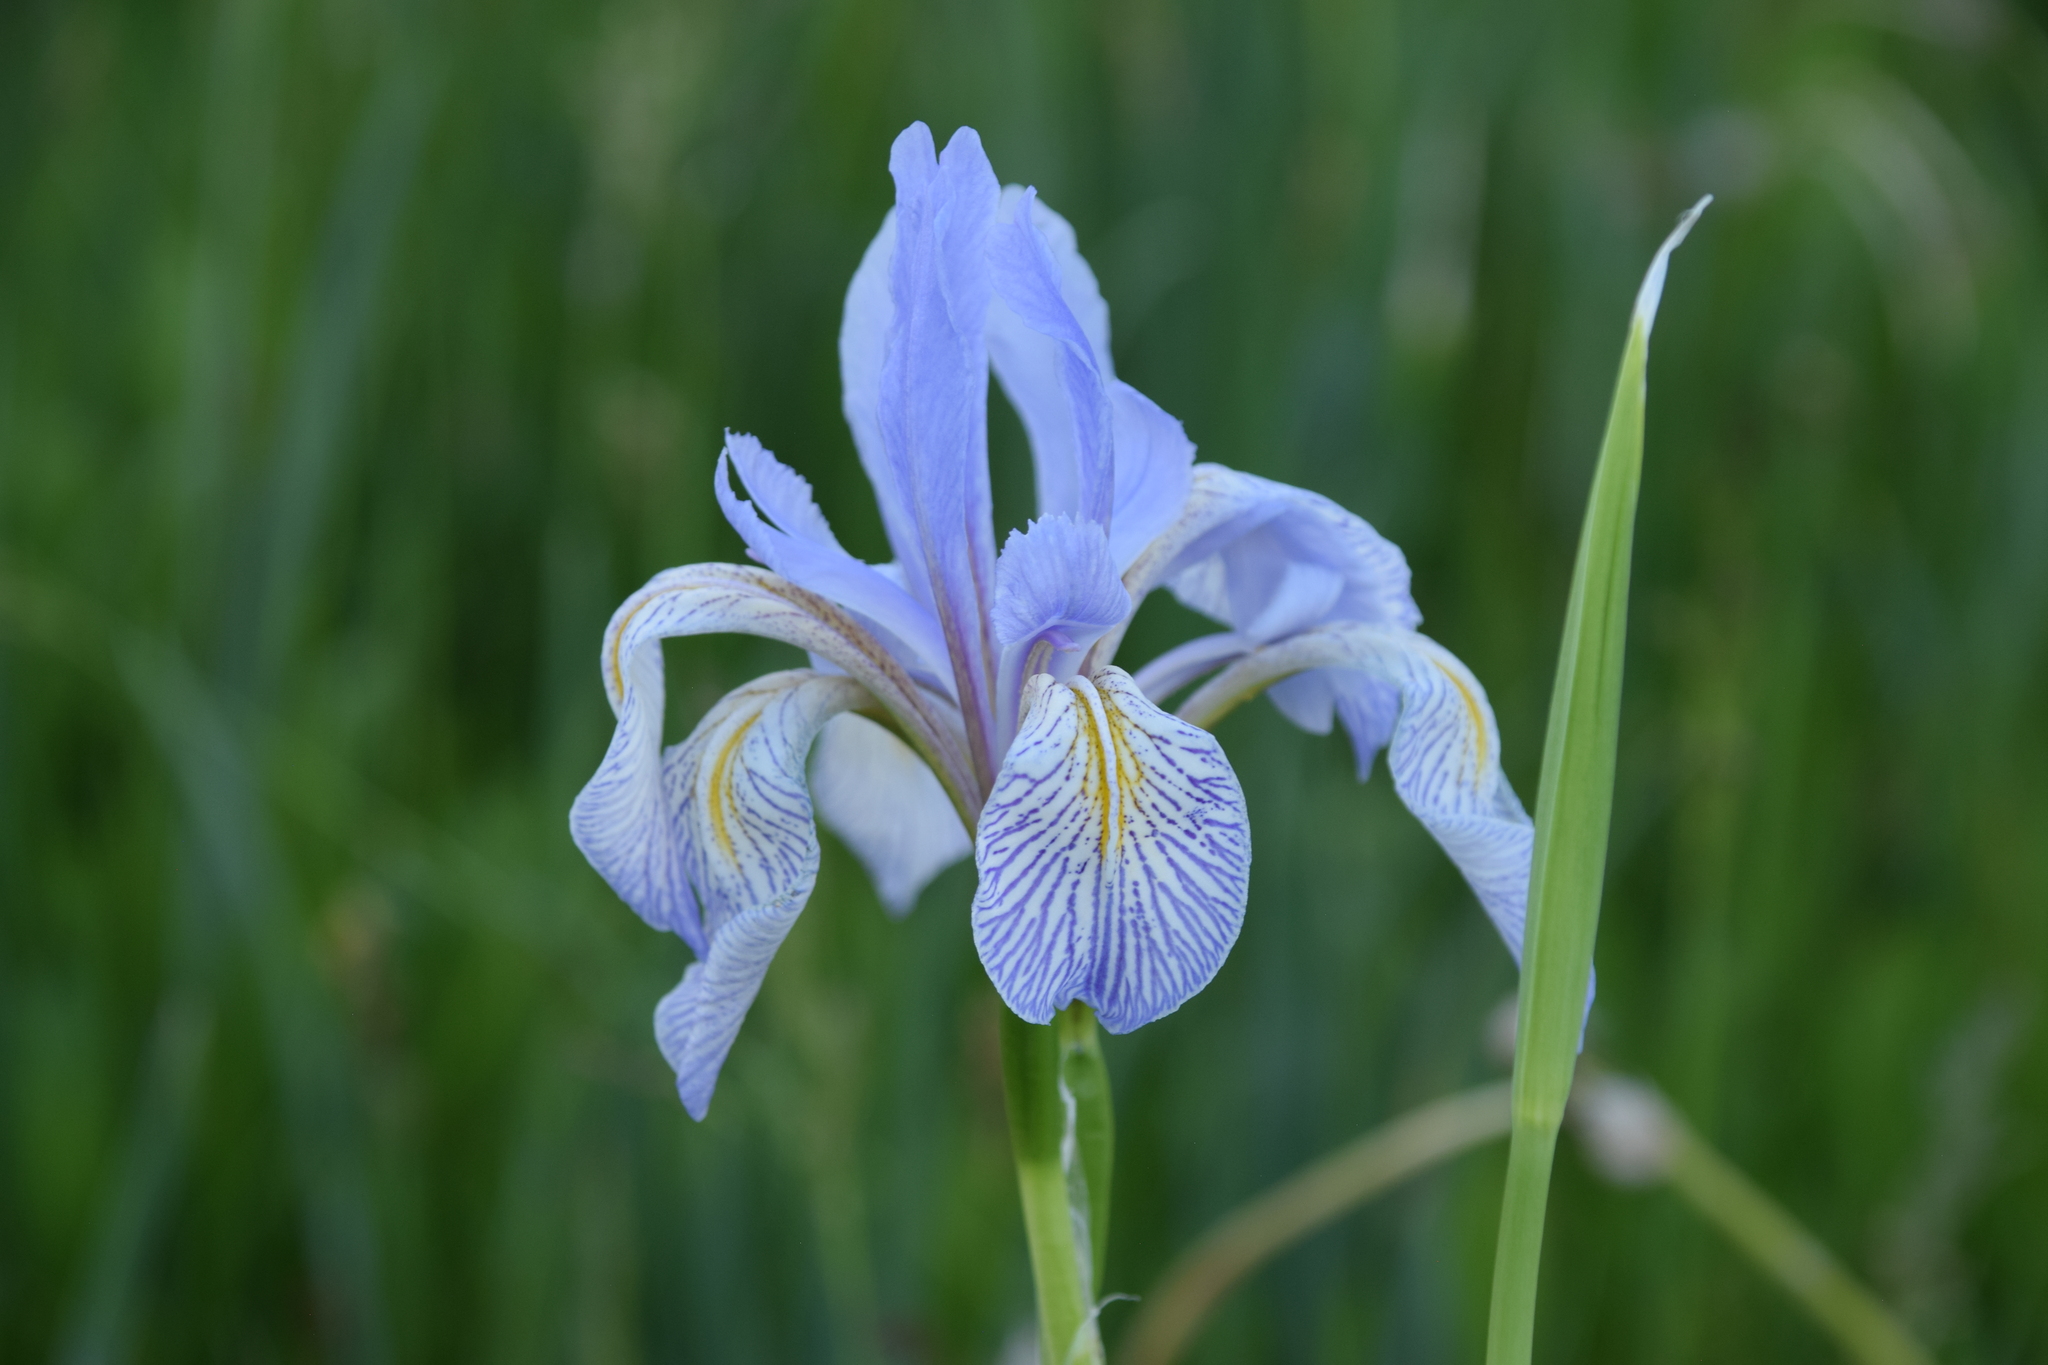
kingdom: Plantae
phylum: Tracheophyta
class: Liliopsida
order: Asparagales
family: Iridaceae
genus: Iris
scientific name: Iris missouriensis
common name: Rocky mountain iris
